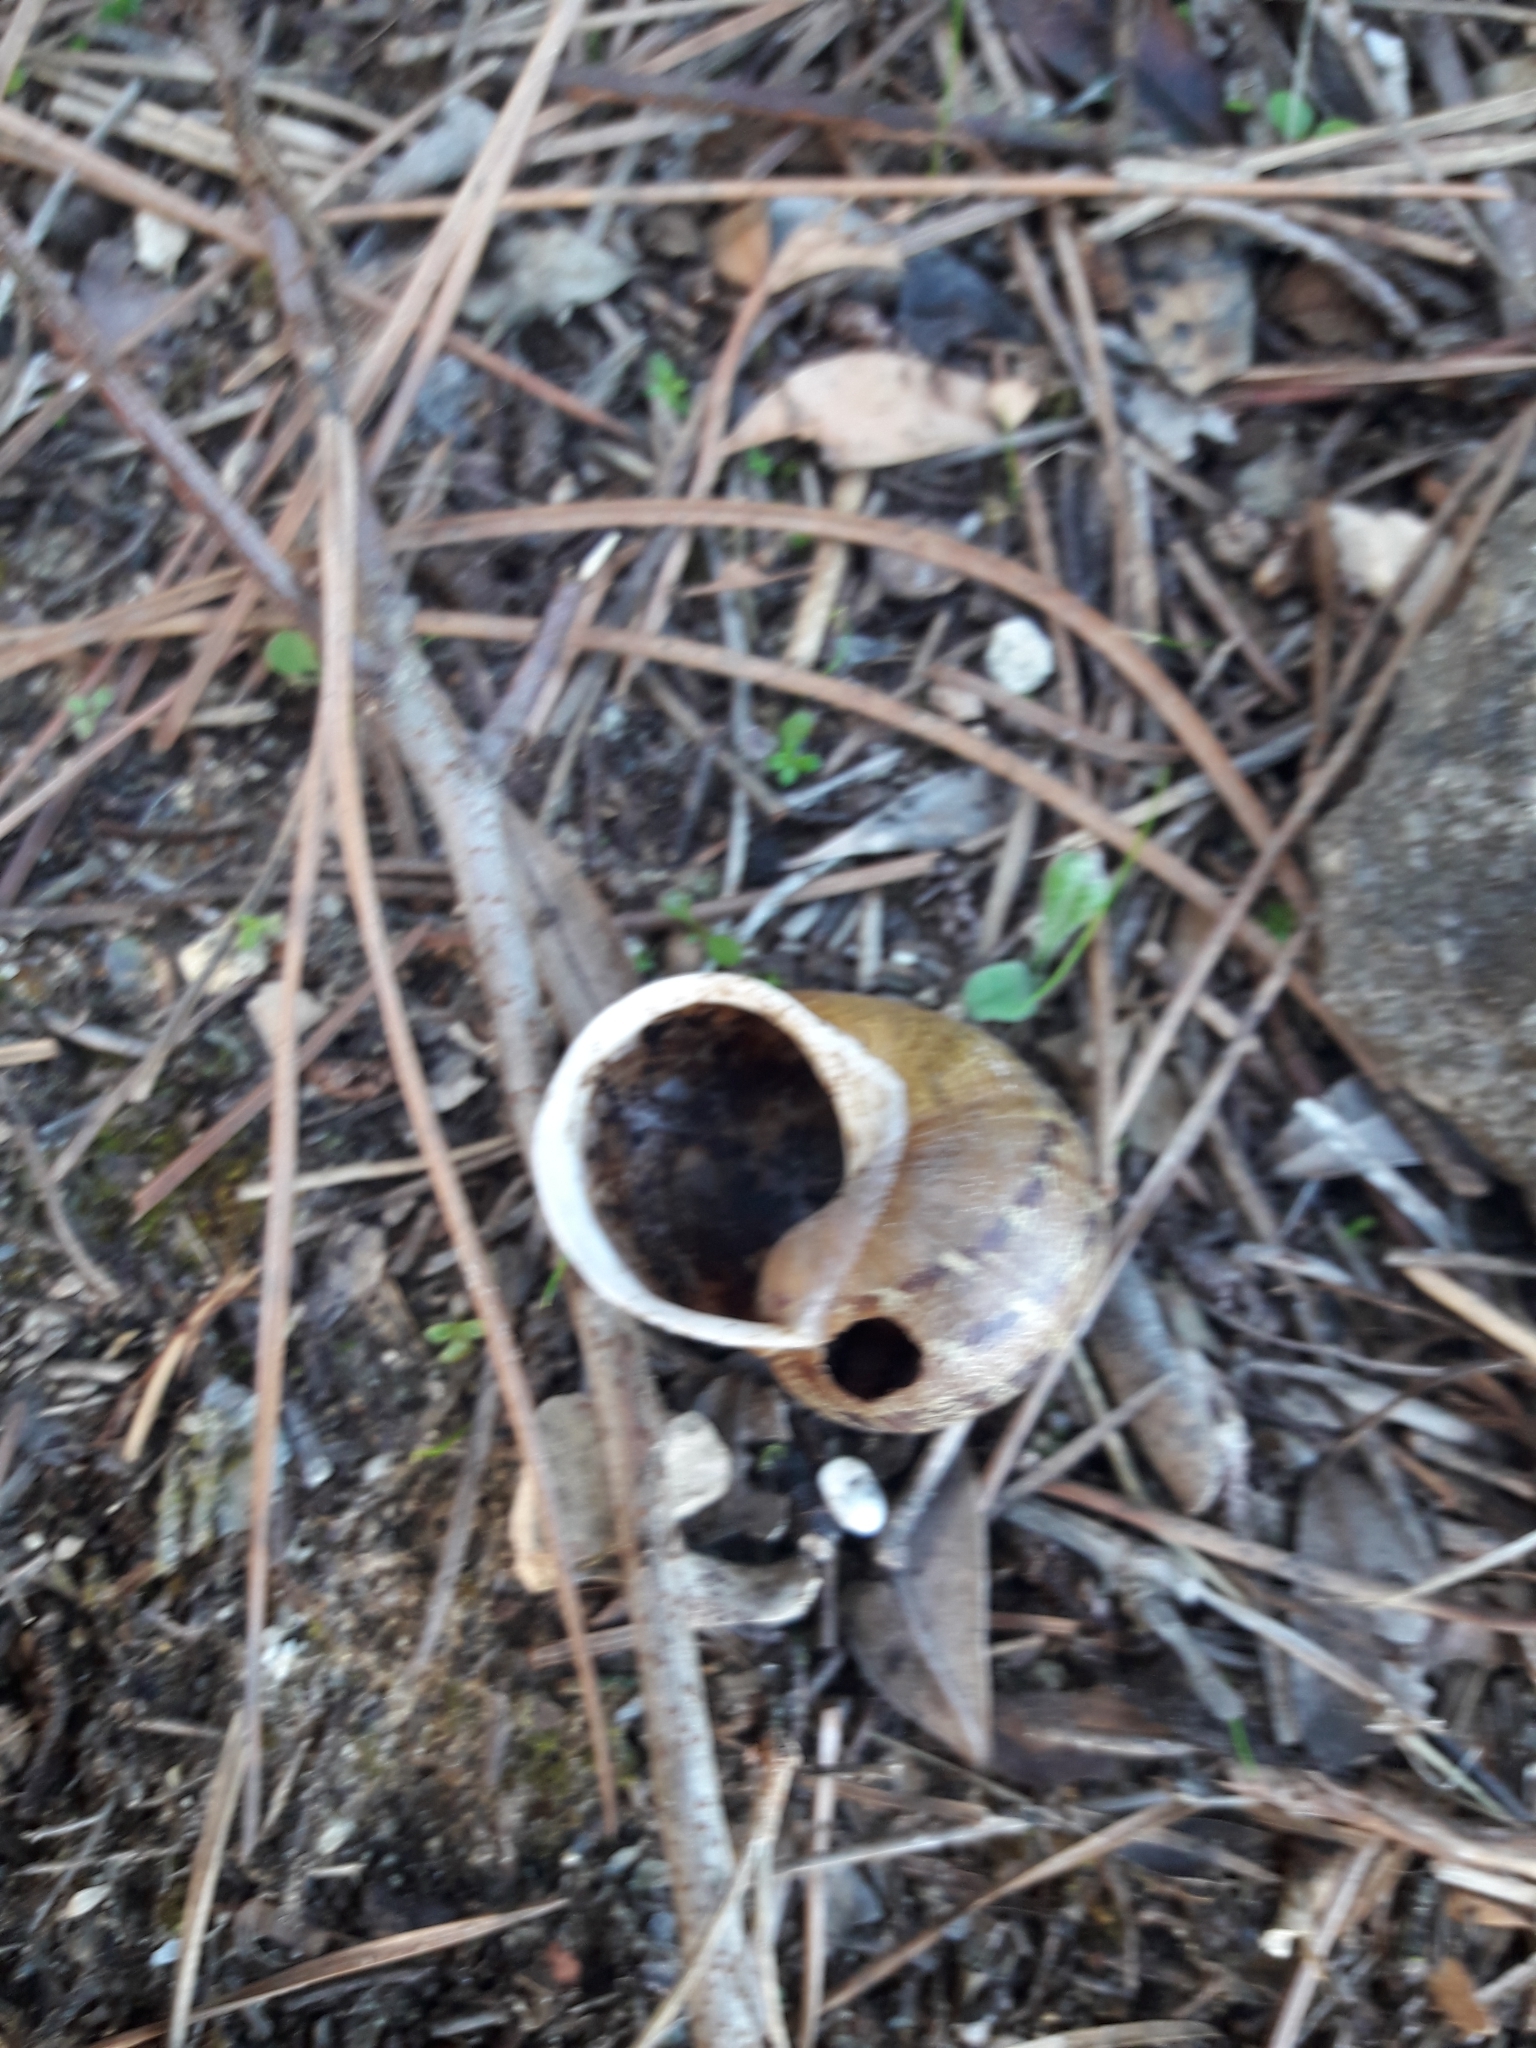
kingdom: Animalia
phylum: Mollusca
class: Gastropoda
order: Stylommatophora
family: Helicidae
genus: Cornu
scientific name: Cornu aspersum
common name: Brown garden snail
